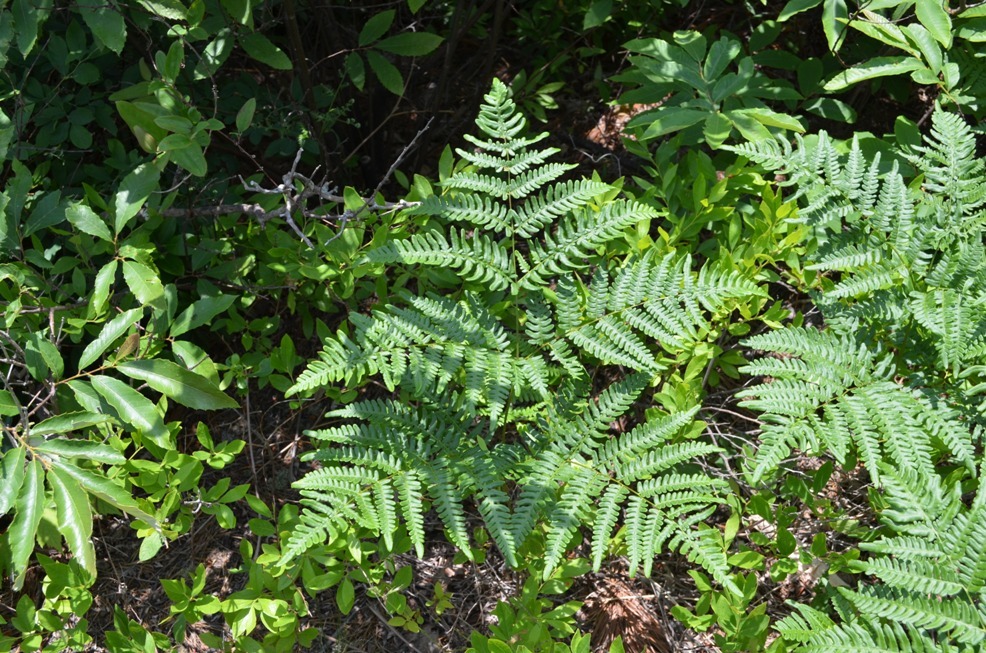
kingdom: Plantae
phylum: Tracheophyta
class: Polypodiopsida
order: Polypodiales
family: Dennstaedtiaceae
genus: Pteridium
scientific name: Pteridium aquilinum
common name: Bracken
